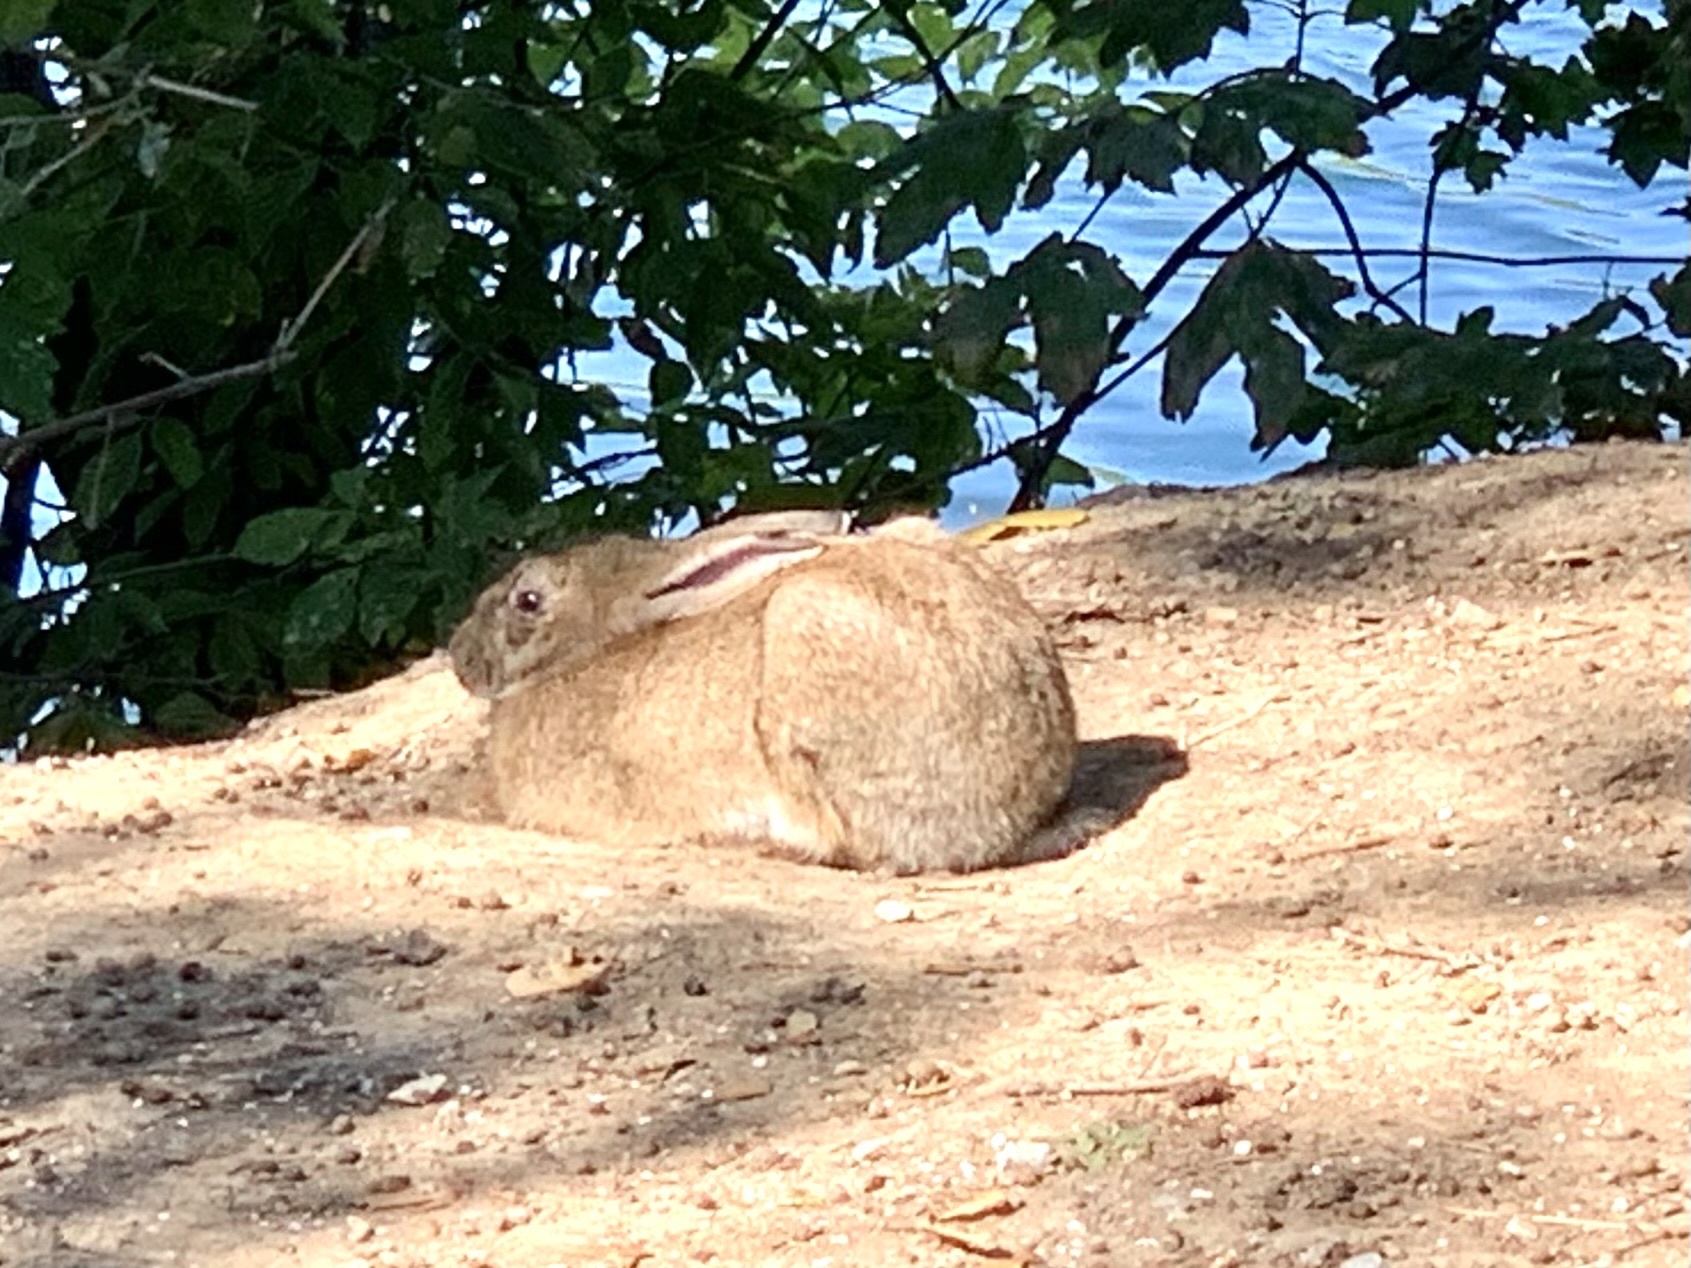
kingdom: Animalia
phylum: Chordata
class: Mammalia
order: Lagomorpha
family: Leporidae
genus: Oryctolagus
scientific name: Oryctolagus cuniculus
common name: European rabbit
